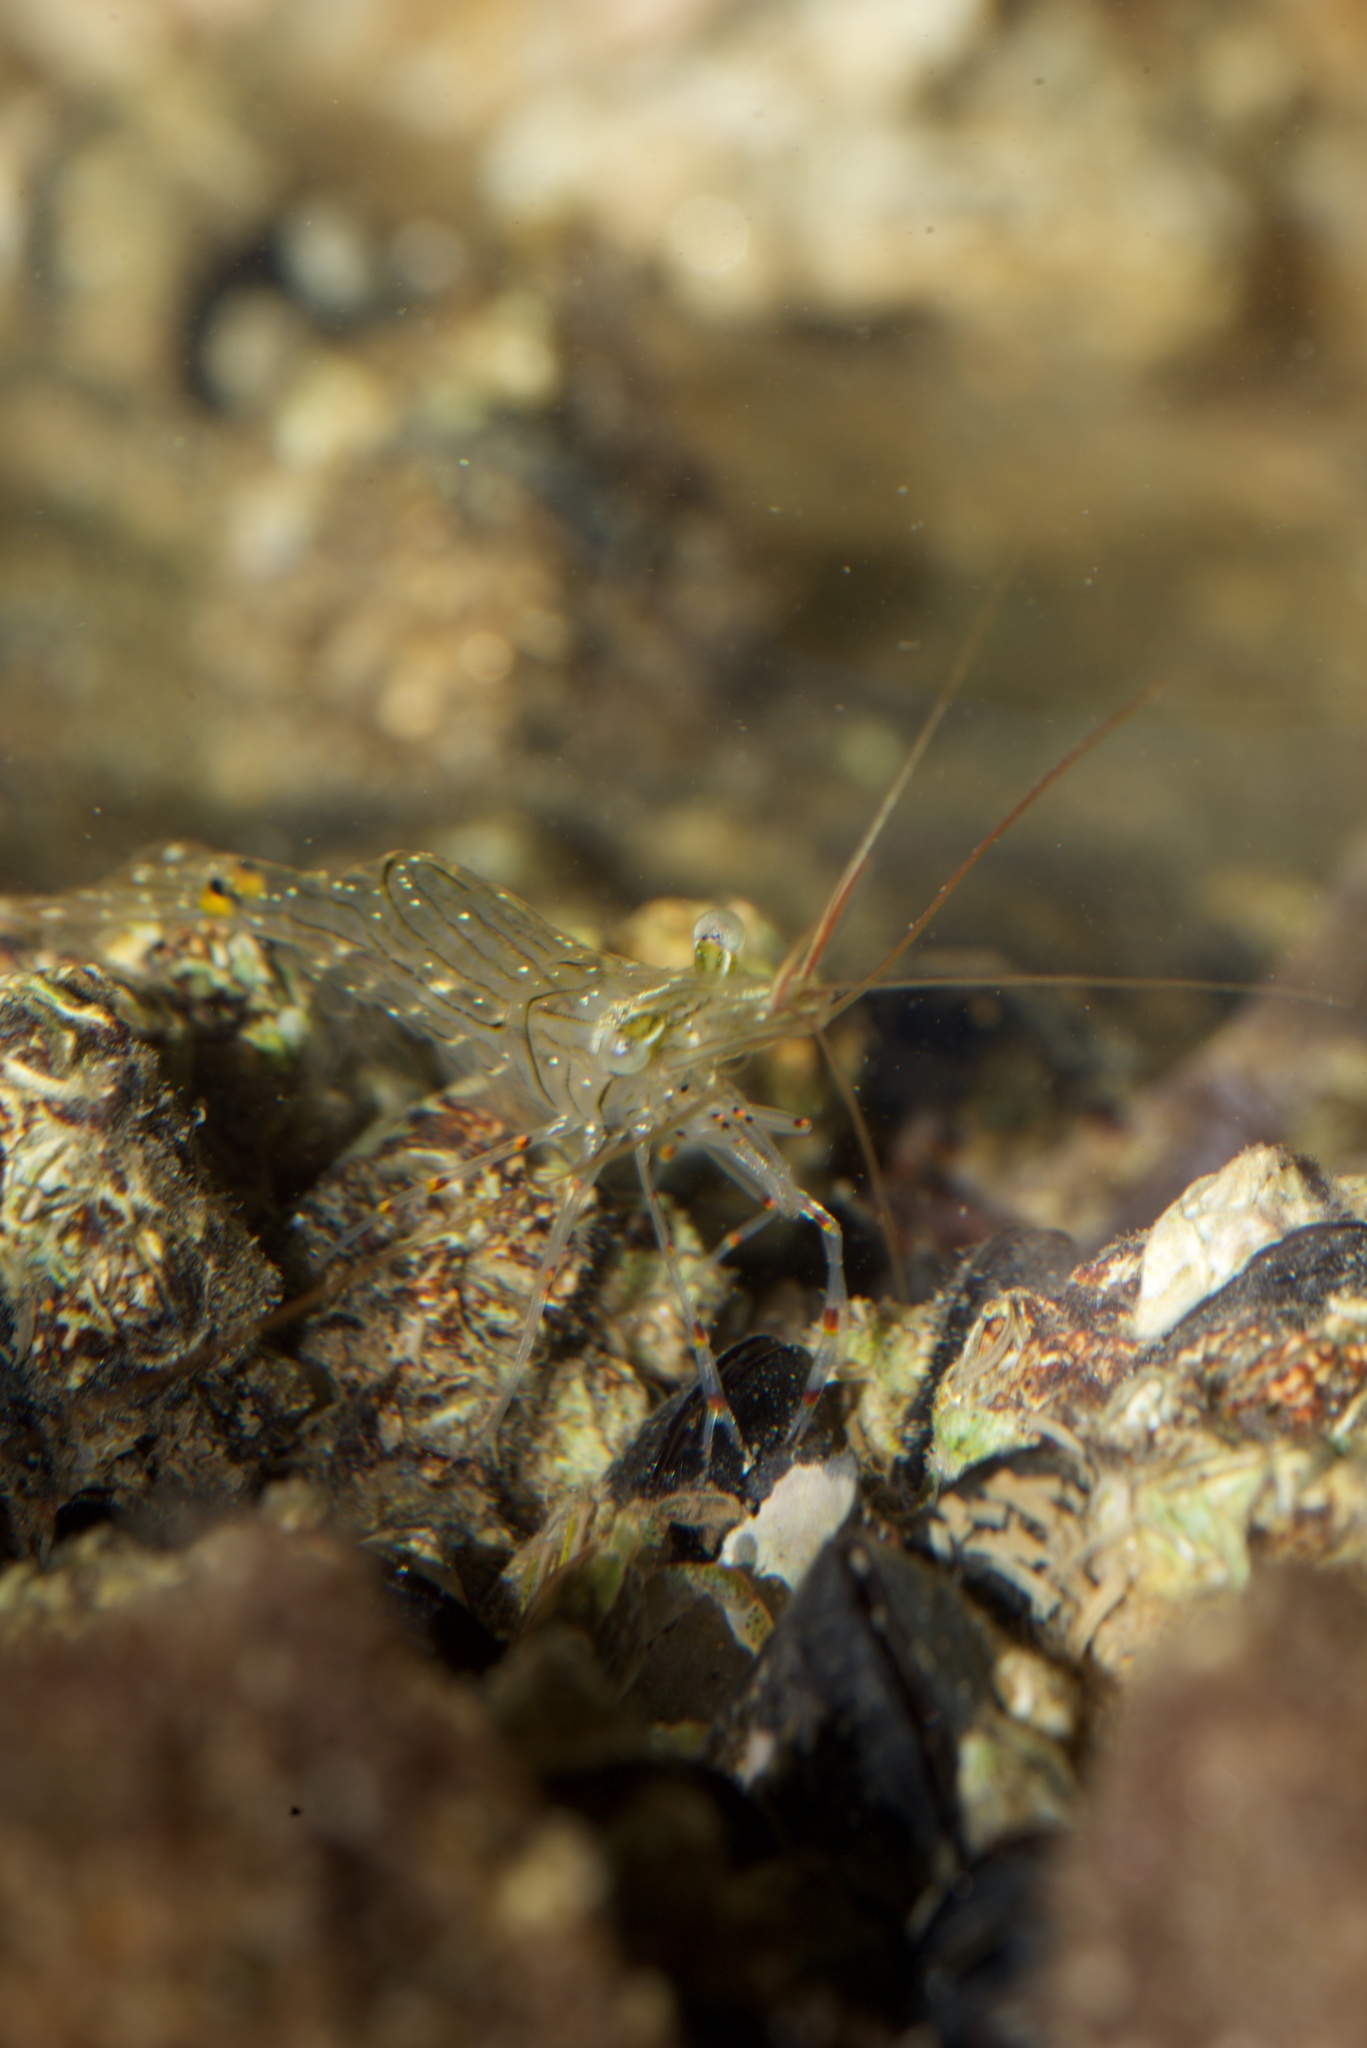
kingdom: Animalia
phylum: Arthropoda
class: Malacostraca
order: Decapoda
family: Palaemonidae
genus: Palaemon
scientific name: Palaemon affinis
